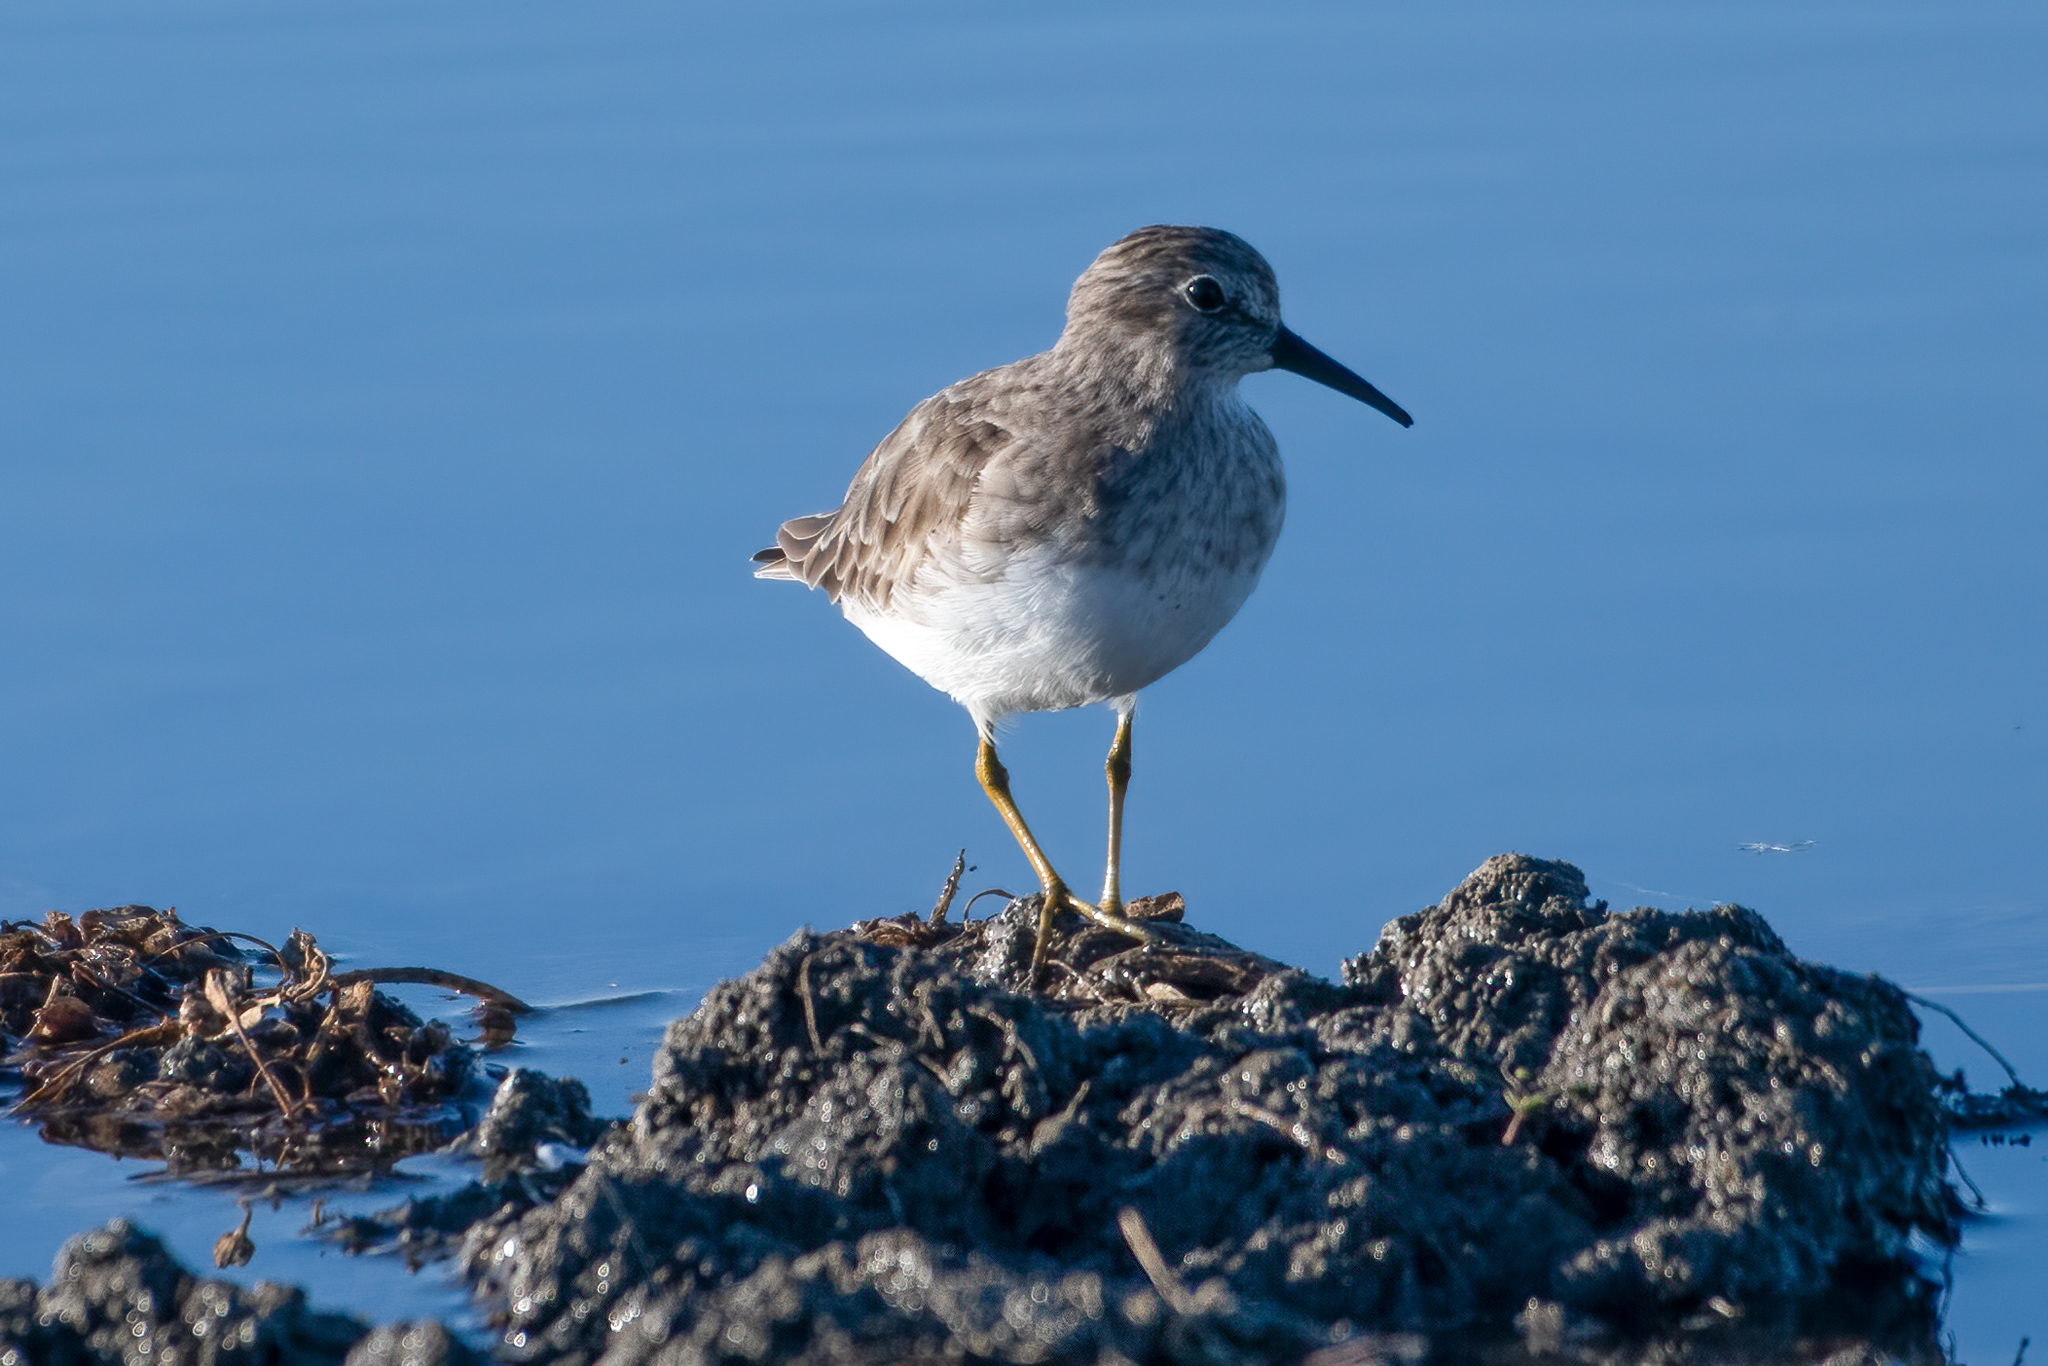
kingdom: Animalia
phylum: Chordata
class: Aves
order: Charadriiformes
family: Scolopacidae
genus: Calidris
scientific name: Calidris minutilla
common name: Least sandpiper
